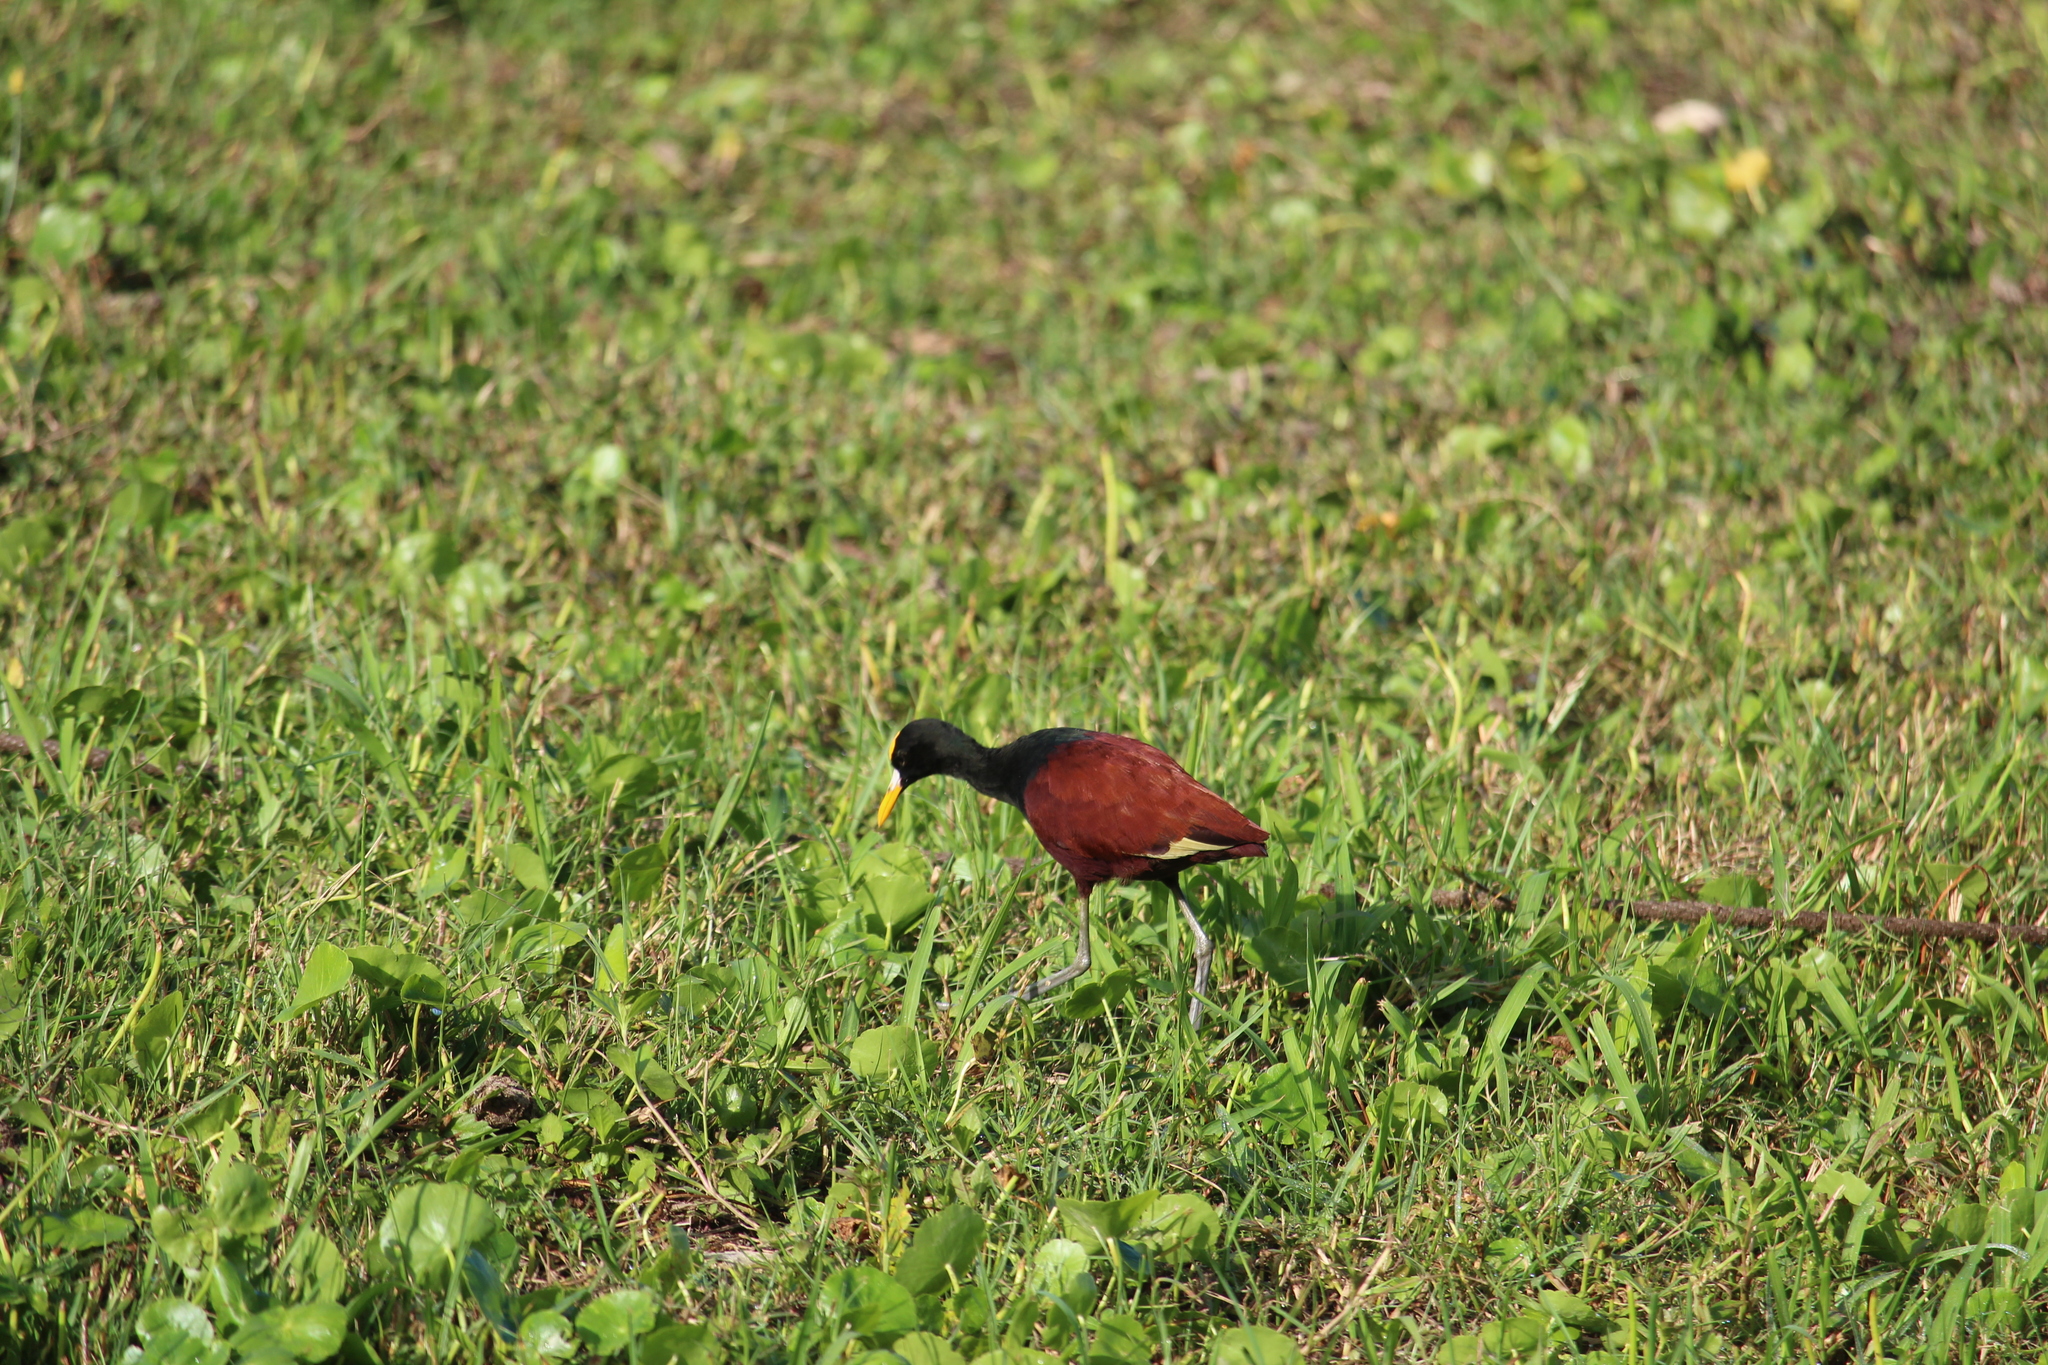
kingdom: Animalia
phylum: Chordata
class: Aves
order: Charadriiformes
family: Jacanidae
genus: Jacana
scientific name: Jacana spinosa
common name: Northern jacana
